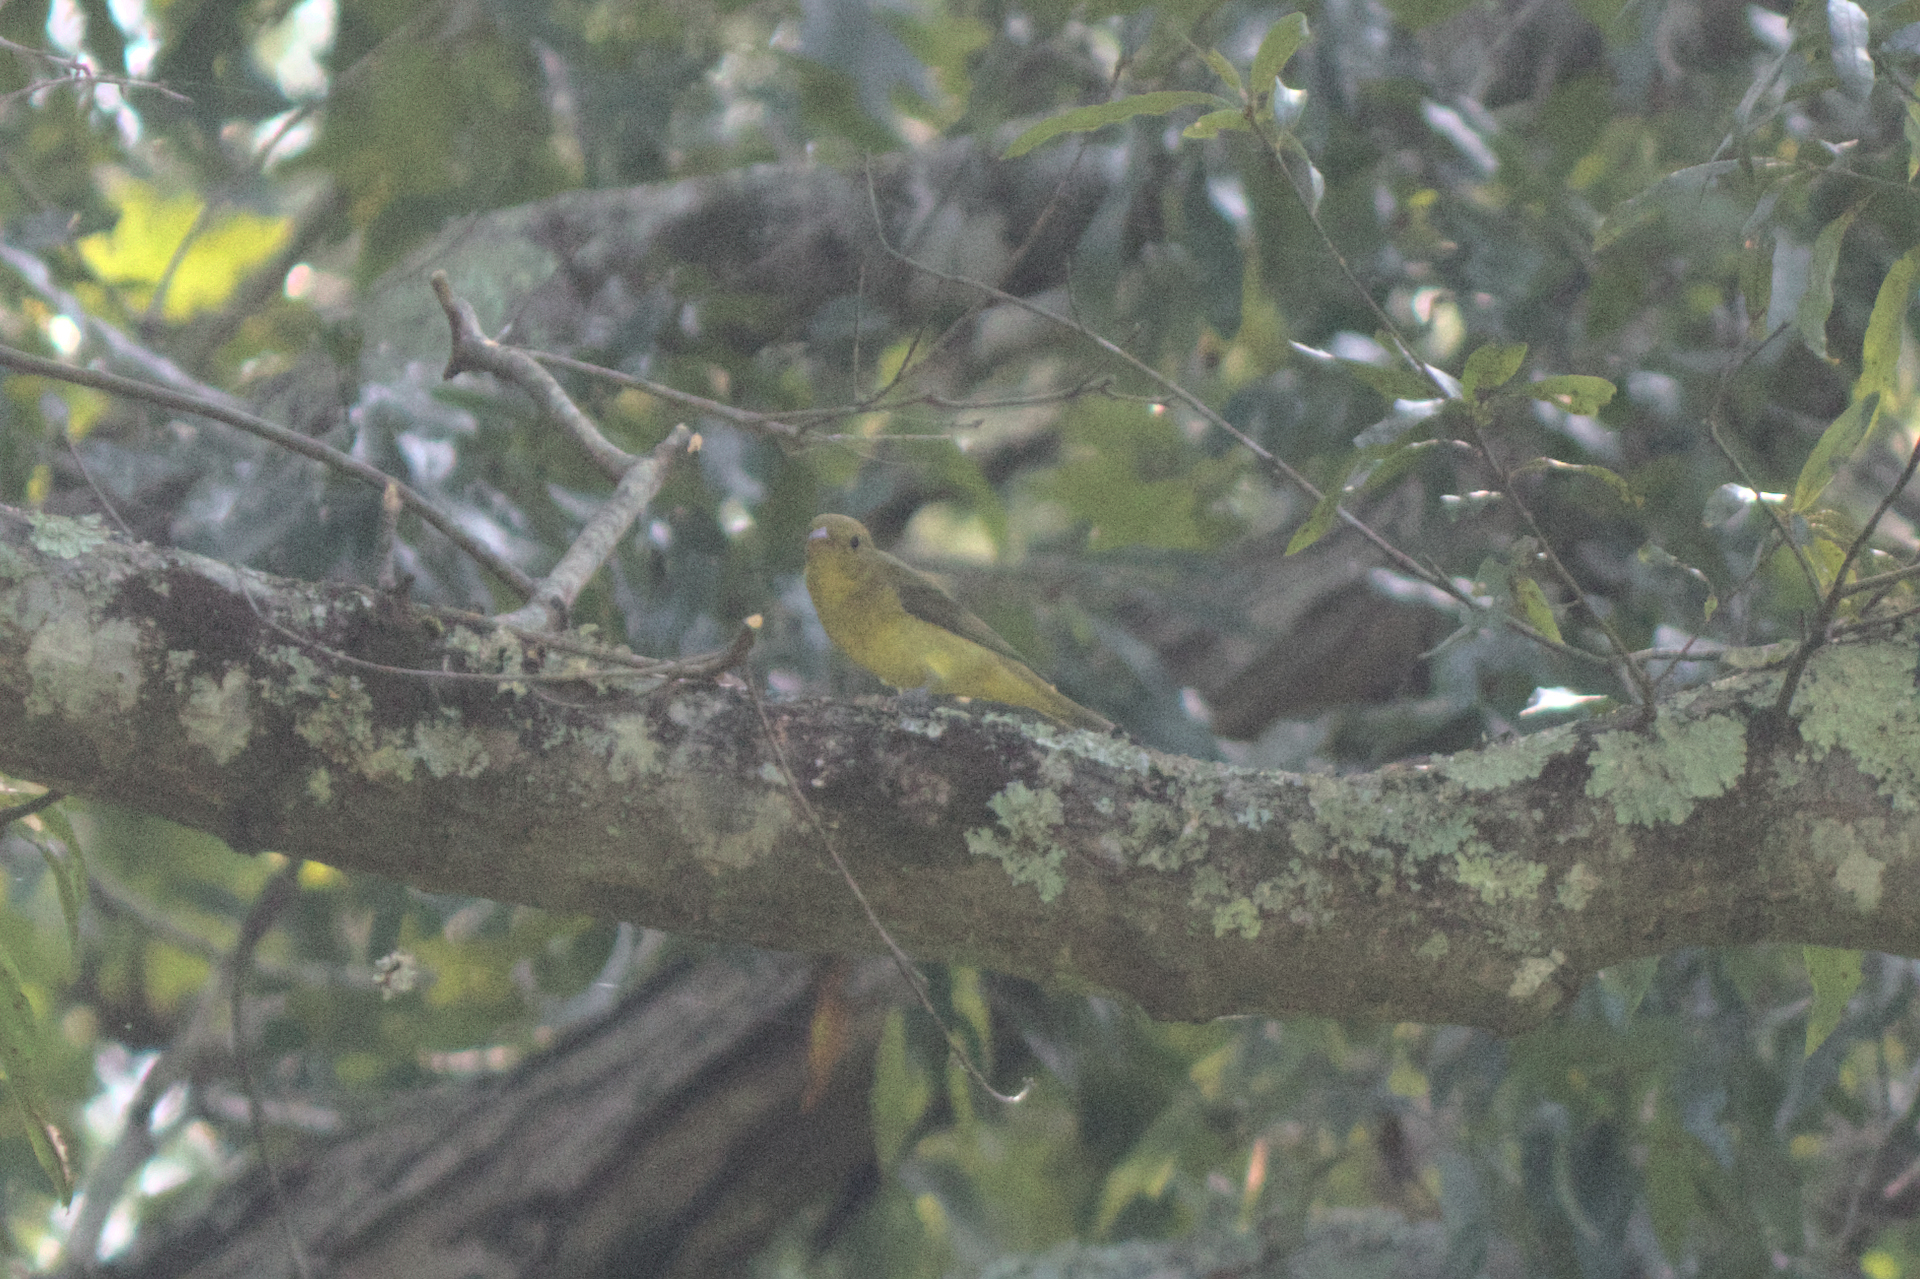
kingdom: Animalia
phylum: Chordata
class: Aves
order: Passeriformes
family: Cardinalidae
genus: Piranga
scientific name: Piranga olivacea
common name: Scarlet tanager
